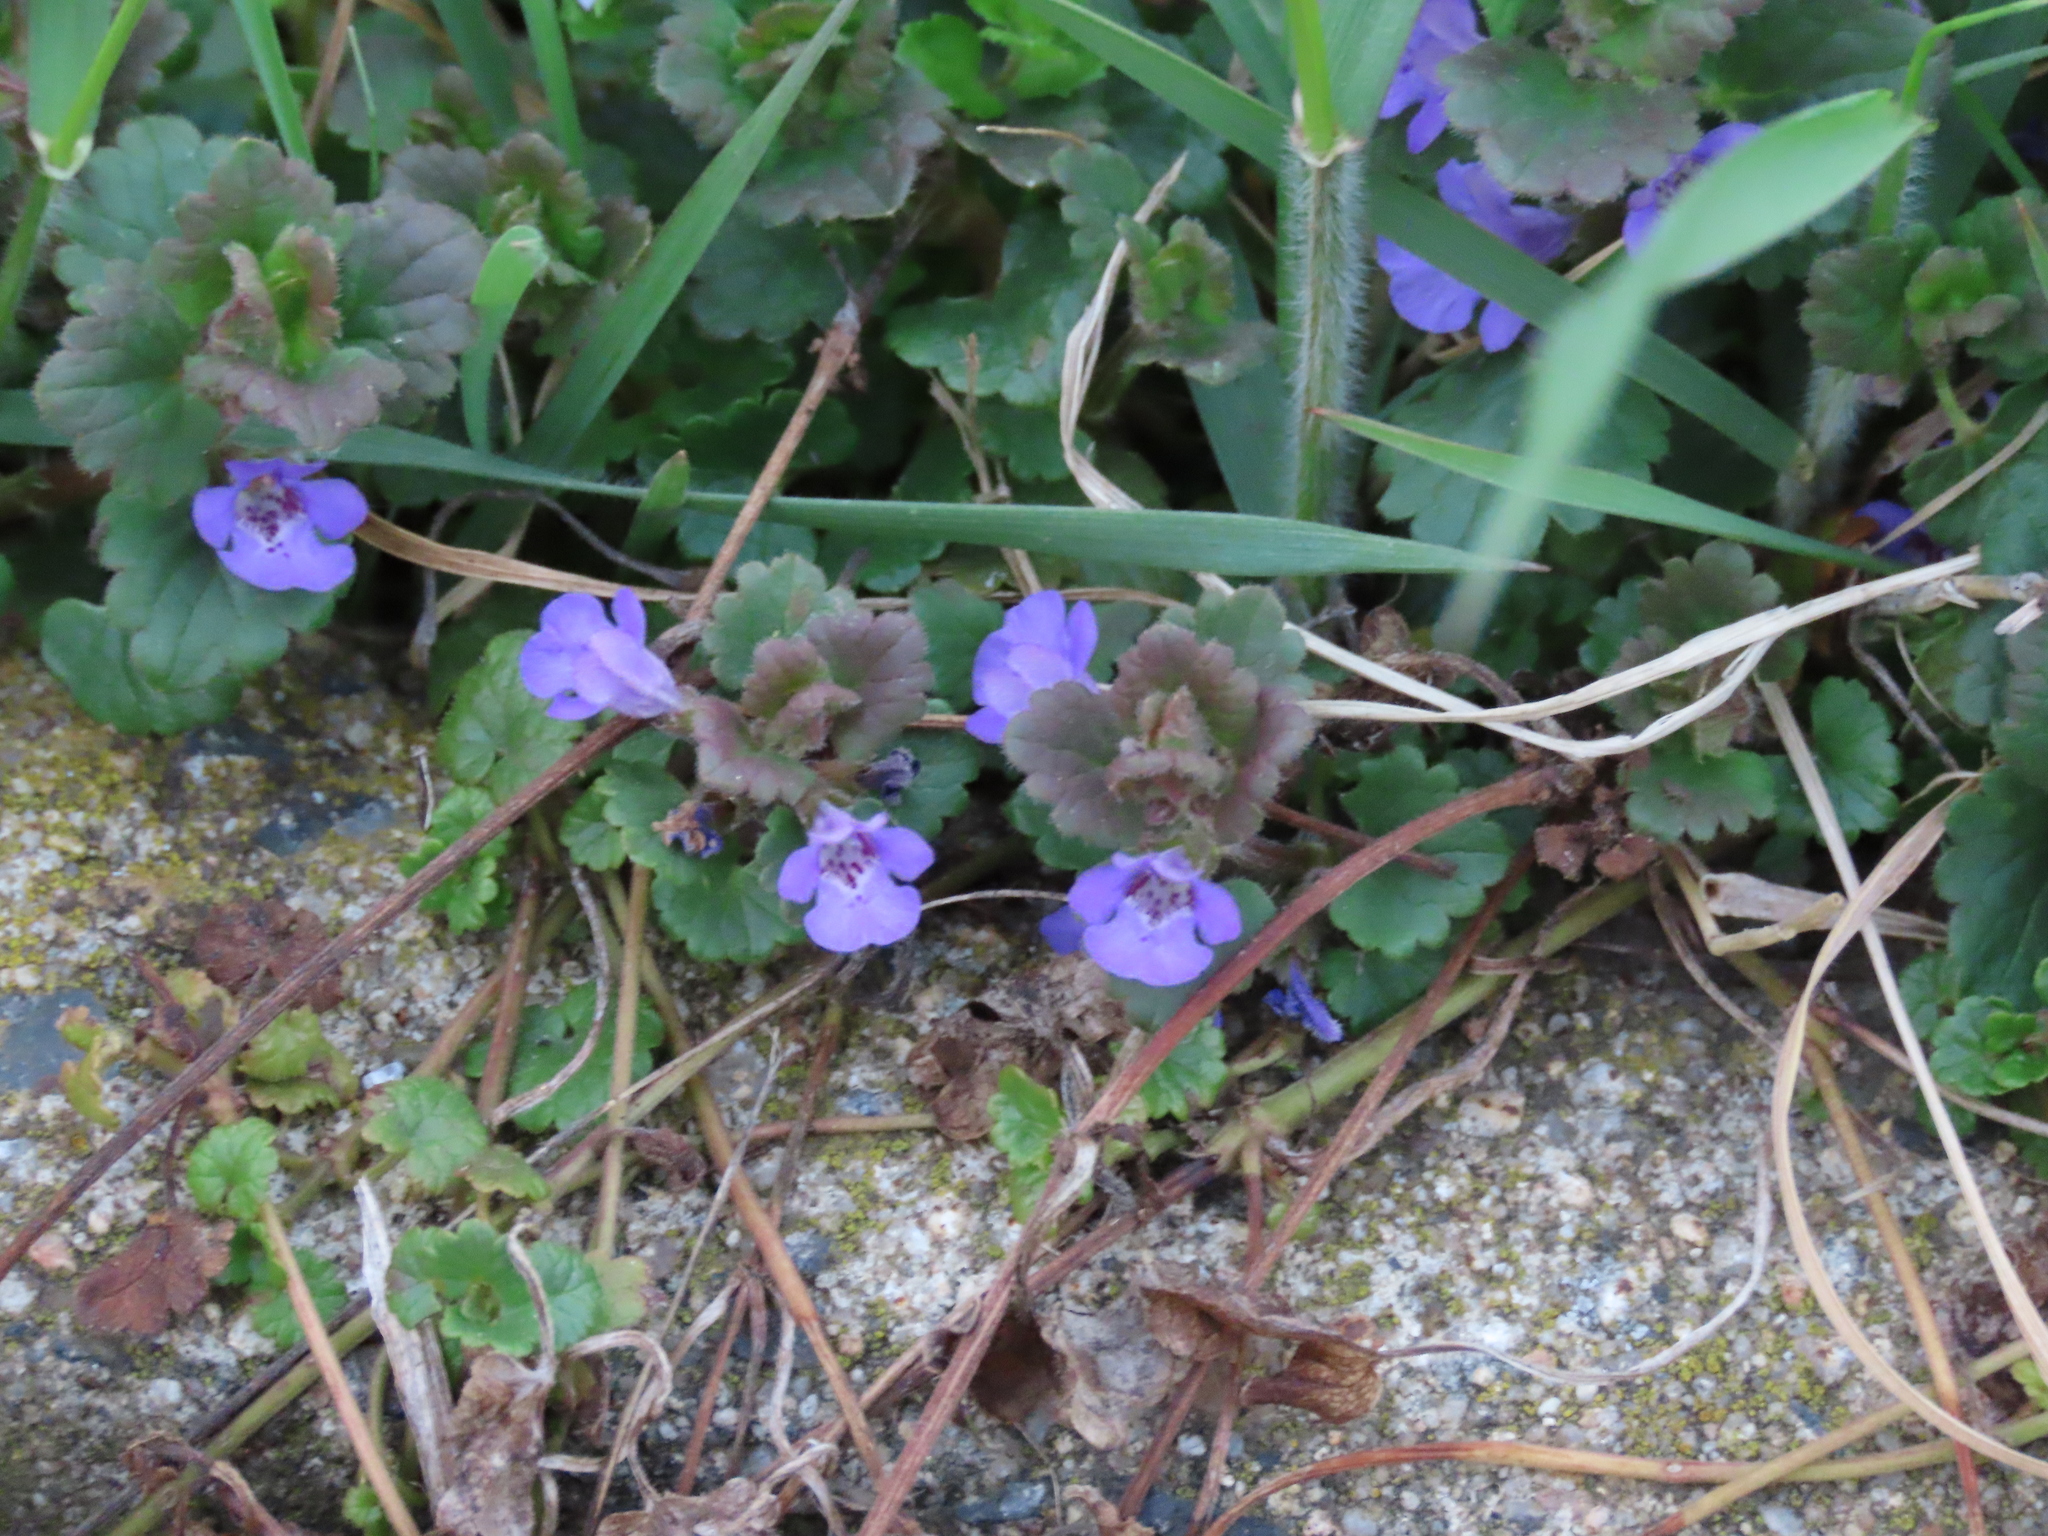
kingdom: Plantae
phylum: Tracheophyta
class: Magnoliopsida
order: Lamiales
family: Lamiaceae
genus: Glechoma
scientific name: Glechoma hederacea
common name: Ground ivy
